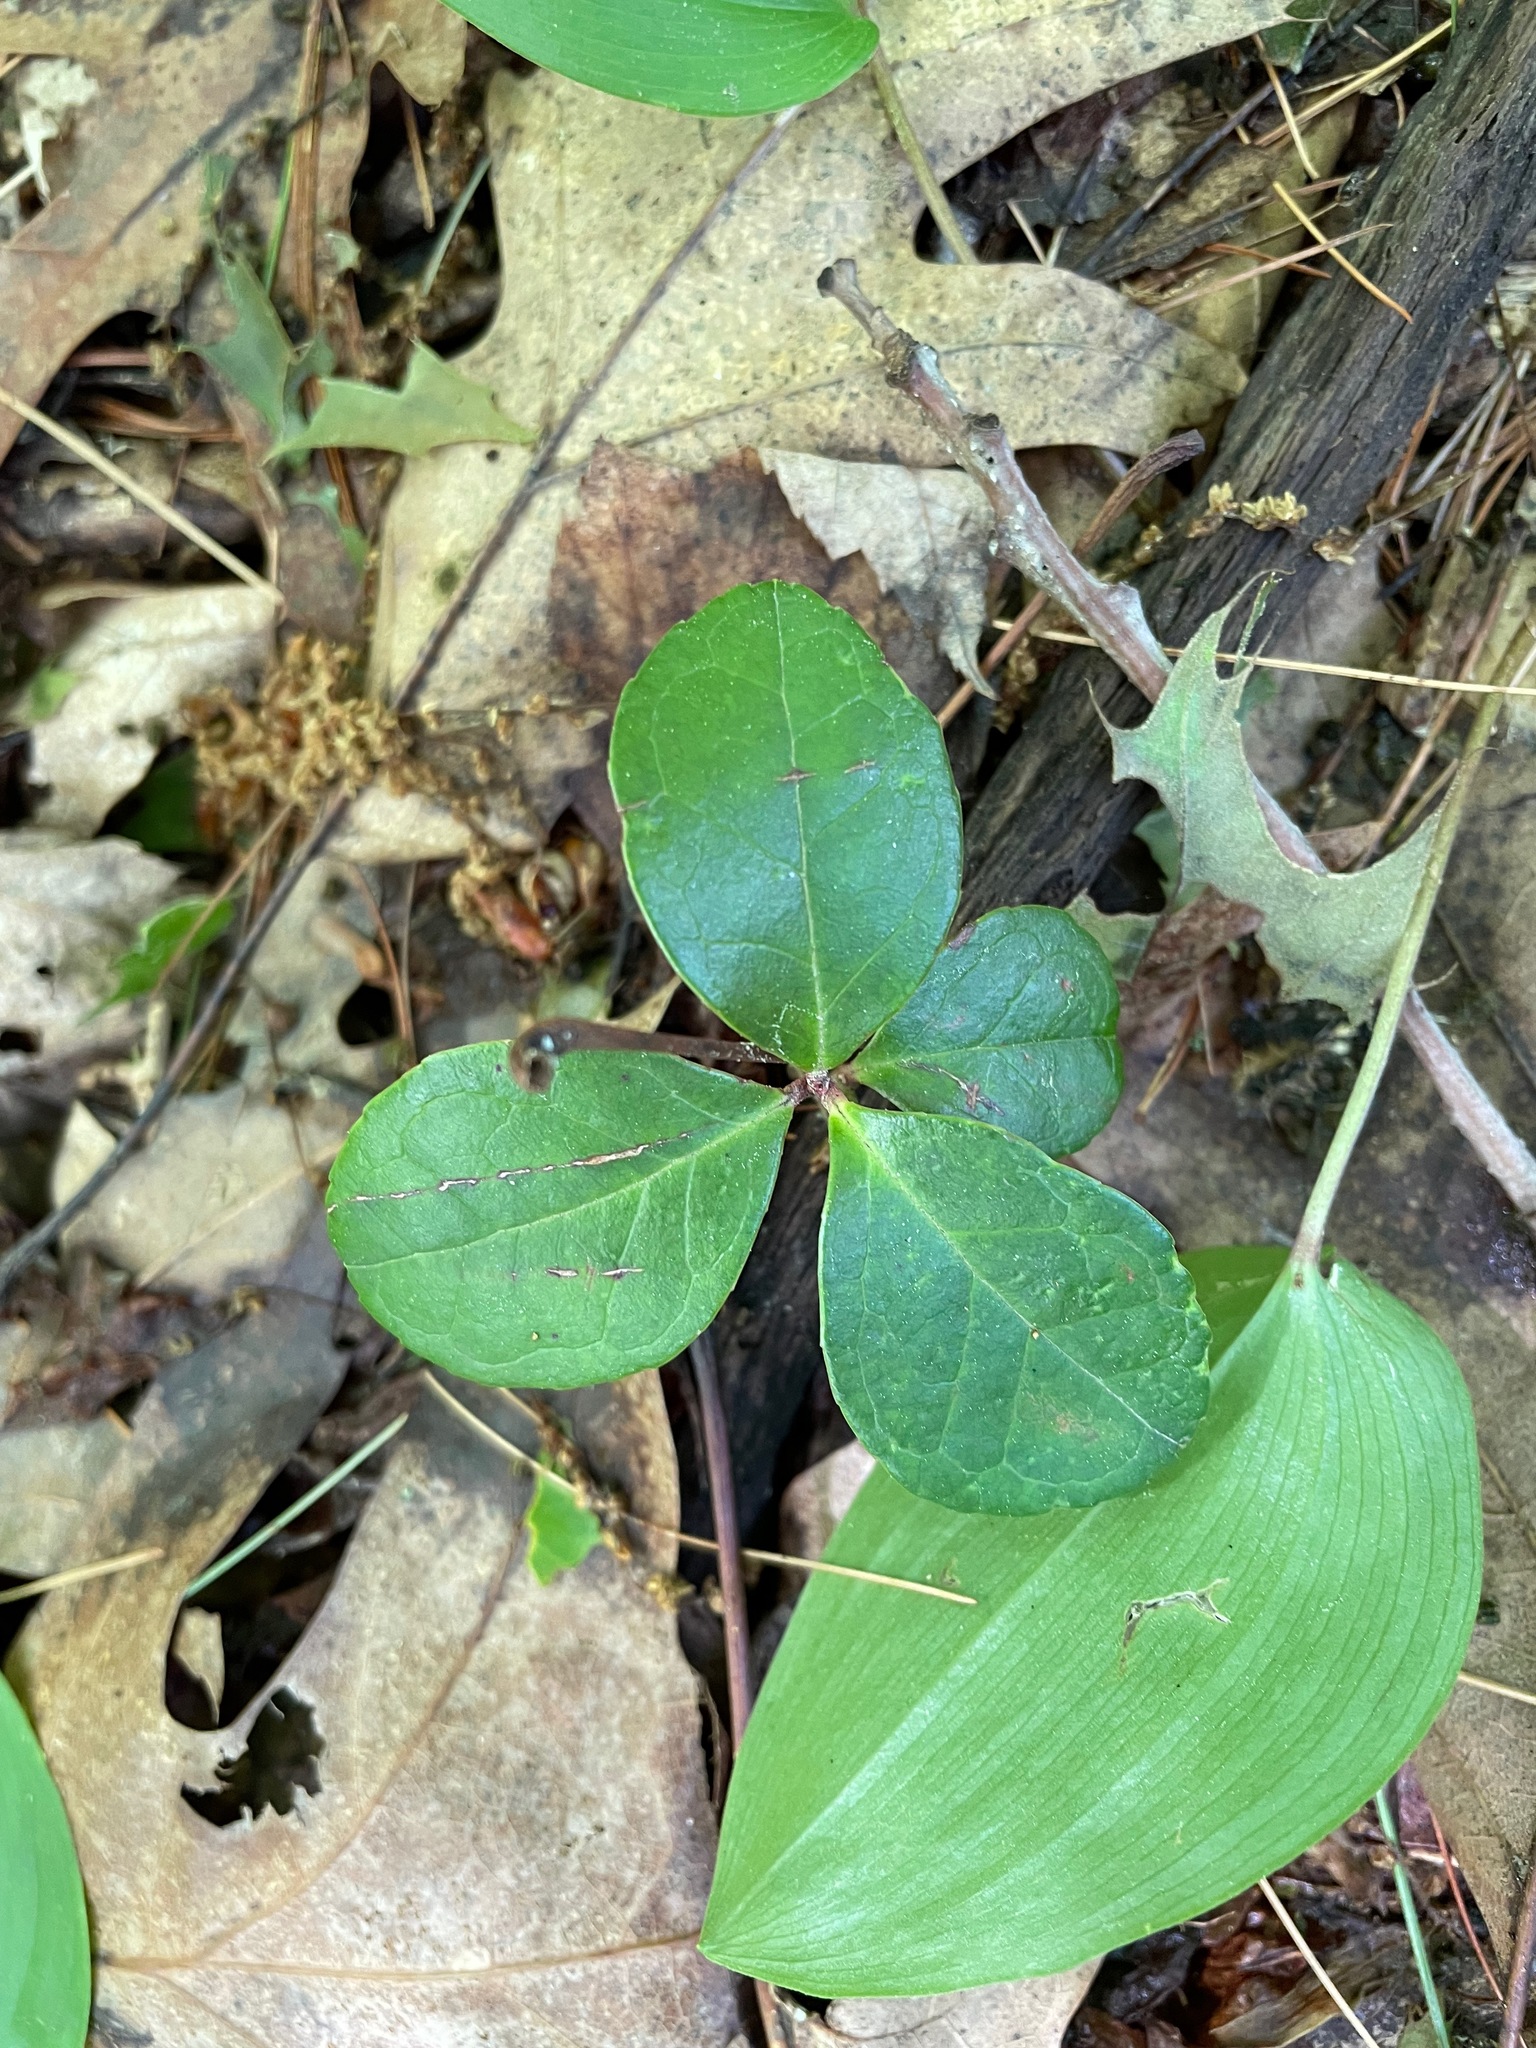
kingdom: Plantae
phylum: Tracheophyta
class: Magnoliopsida
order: Ericales
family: Ericaceae
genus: Gaultheria
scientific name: Gaultheria procumbens
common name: Checkerberry
